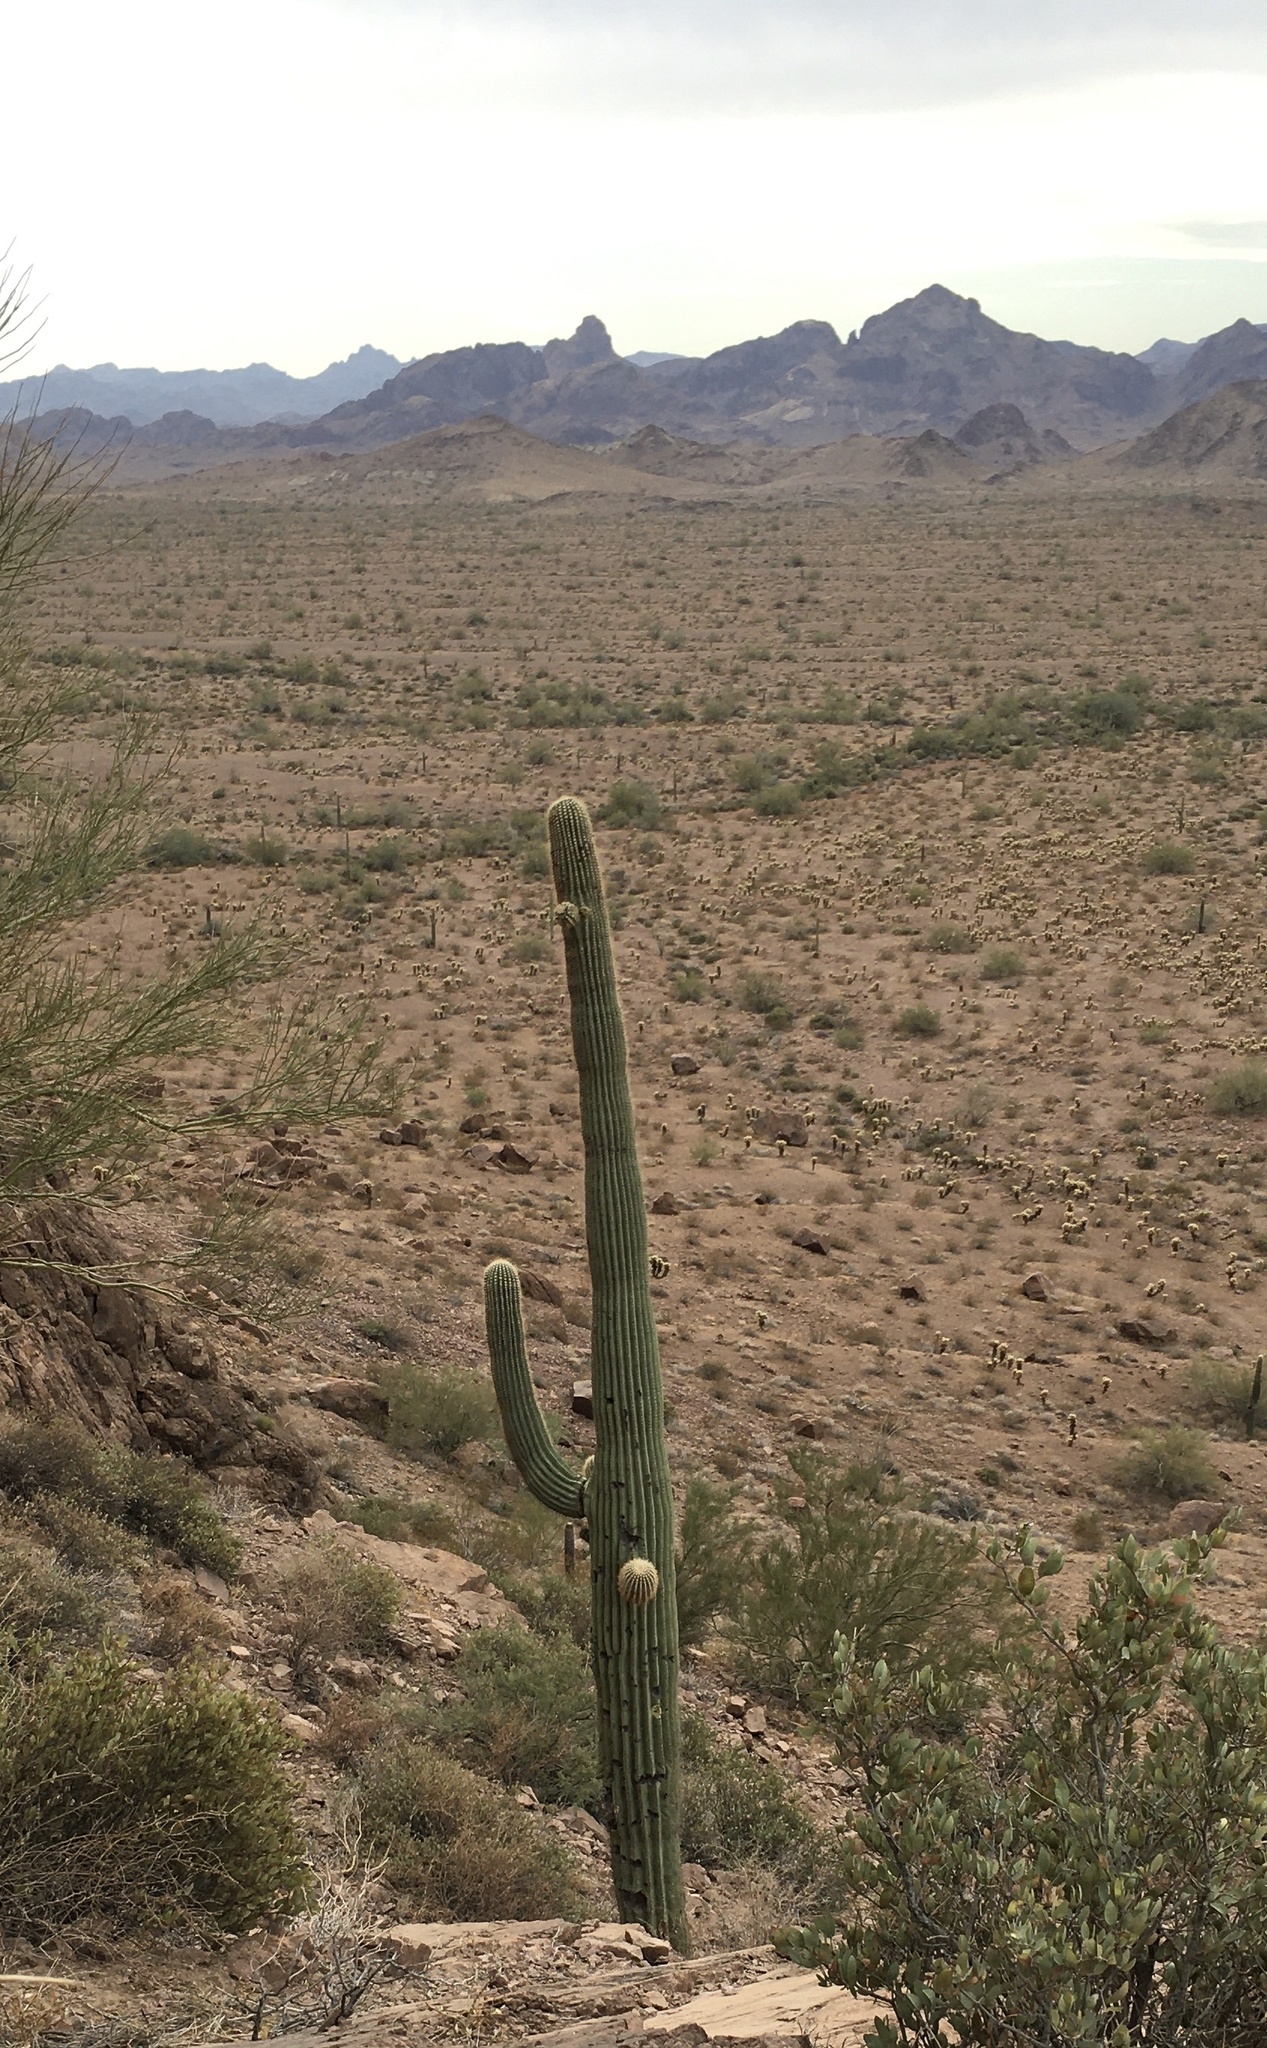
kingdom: Plantae
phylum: Tracheophyta
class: Magnoliopsida
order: Caryophyllales
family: Cactaceae
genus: Carnegiea
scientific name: Carnegiea gigantea
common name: Saguaro
